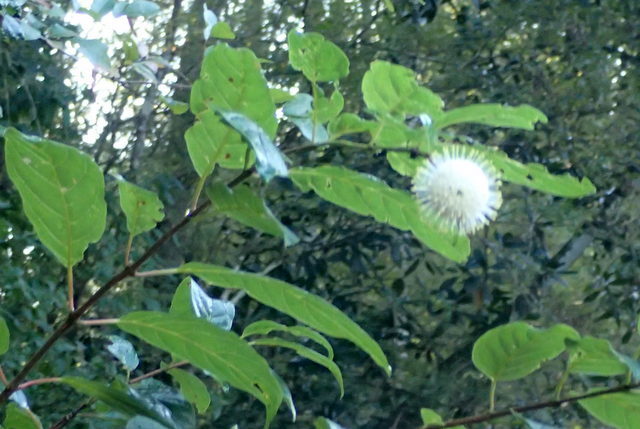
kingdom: Plantae
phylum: Tracheophyta
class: Magnoliopsida
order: Gentianales
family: Rubiaceae
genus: Cephalanthus
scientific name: Cephalanthus occidentalis
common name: Button-willow
